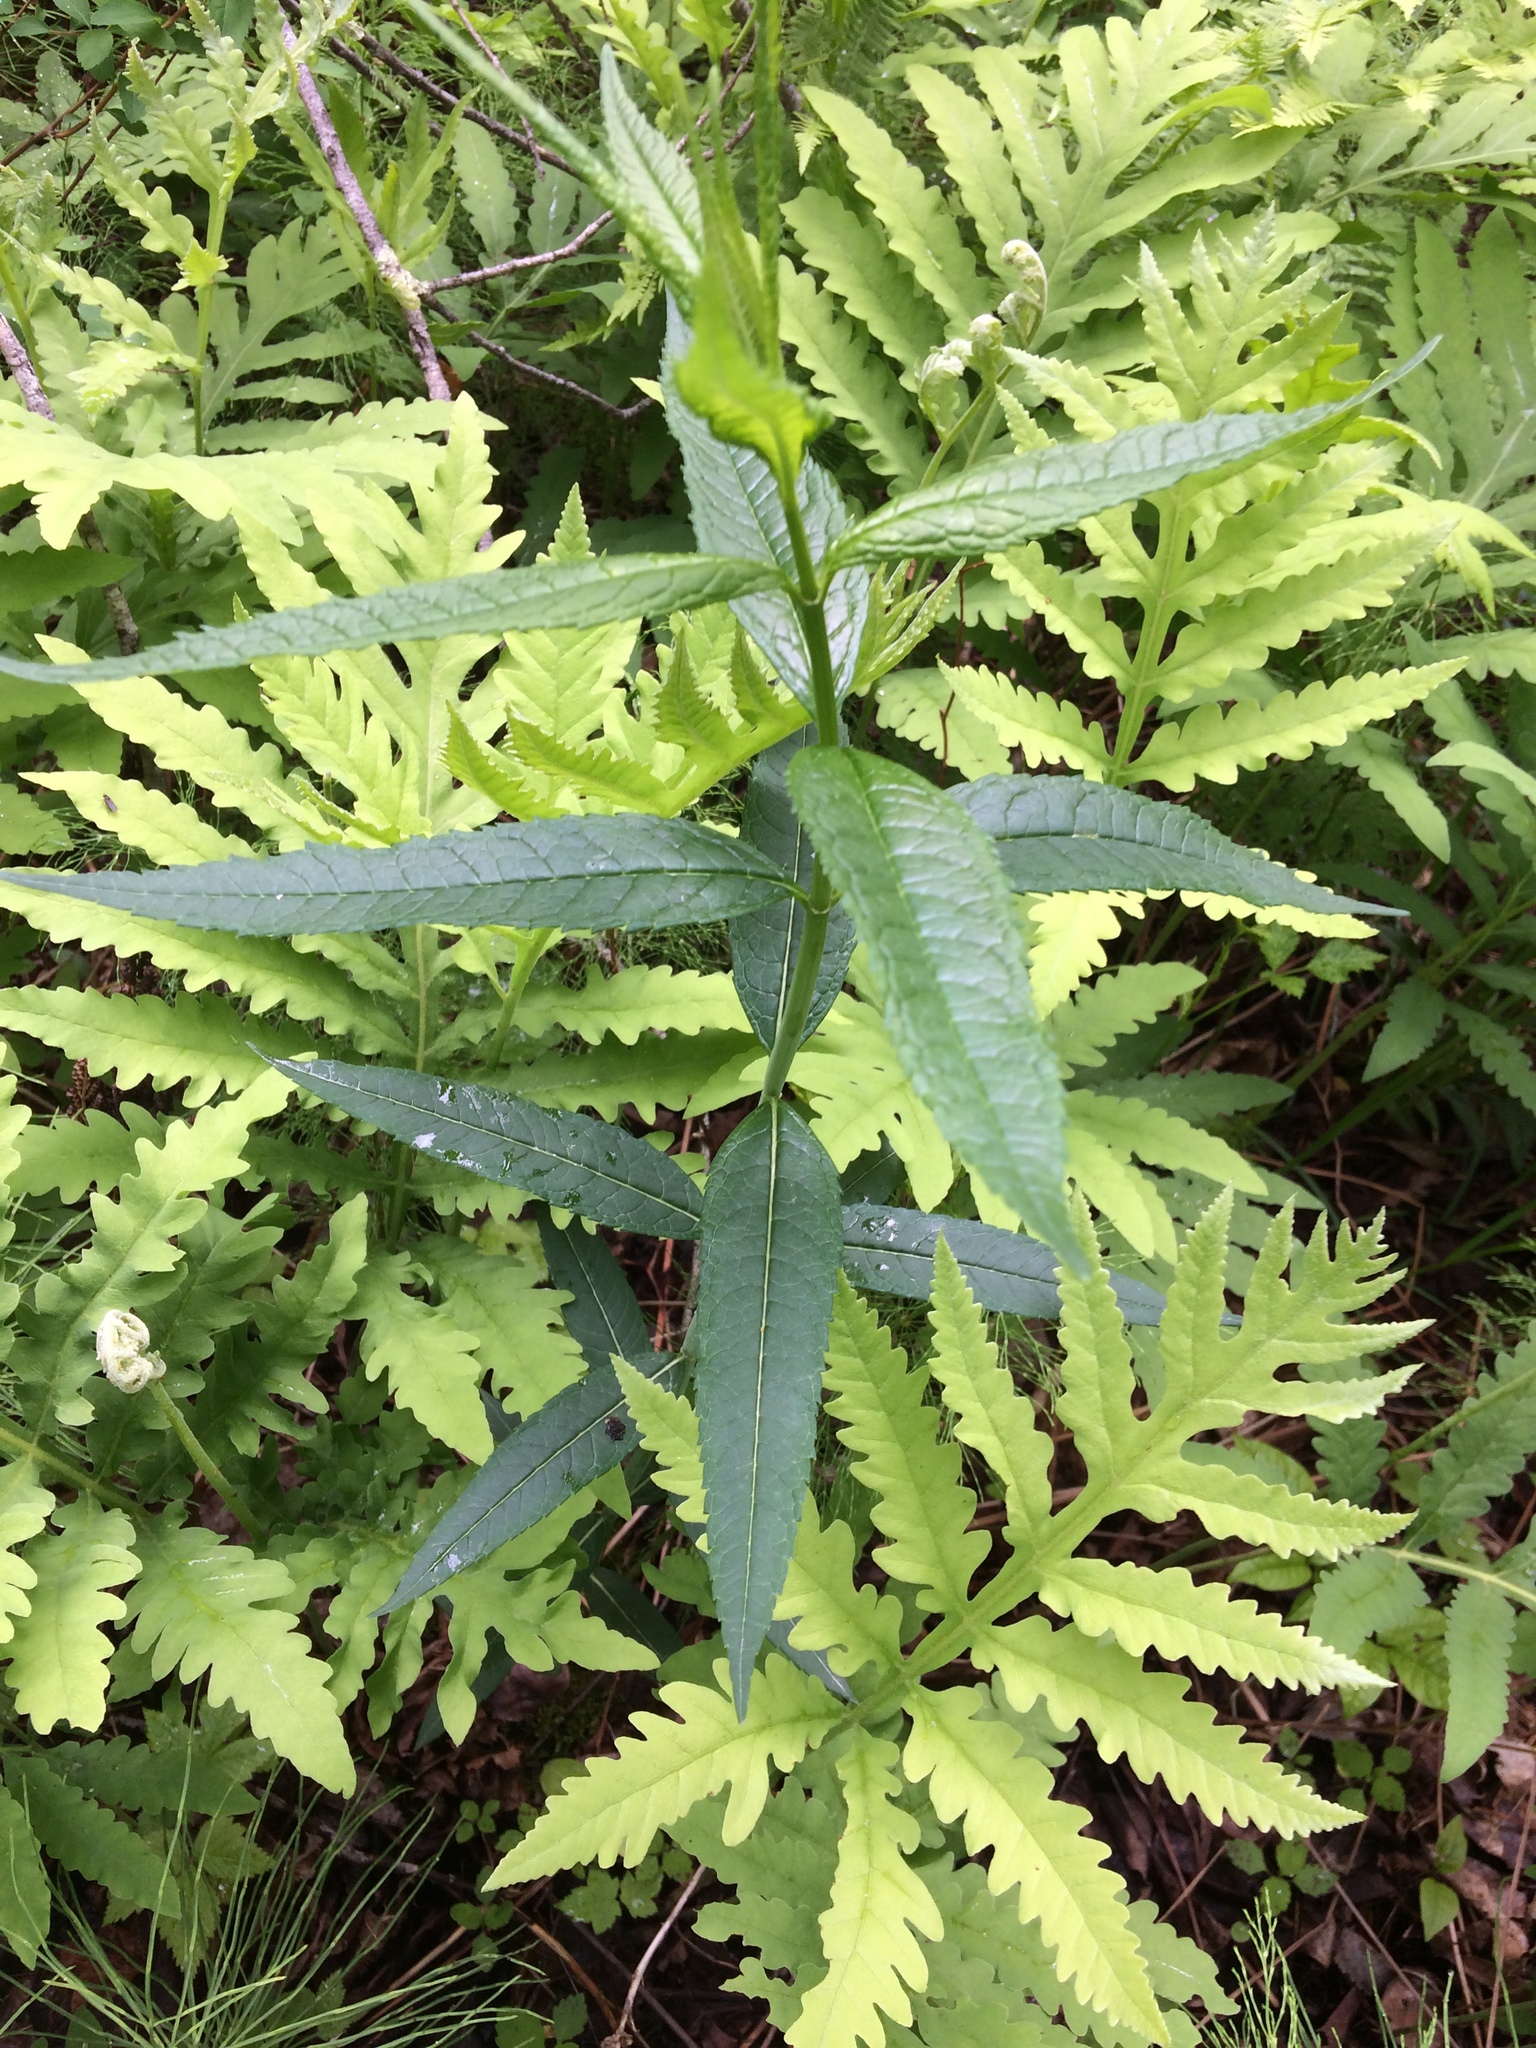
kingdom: Plantae
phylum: Tracheophyta
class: Magnoliopsida
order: Lamiales
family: Plantaginaceae
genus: Chelone
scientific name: Chelone glabra
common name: Snakehead
